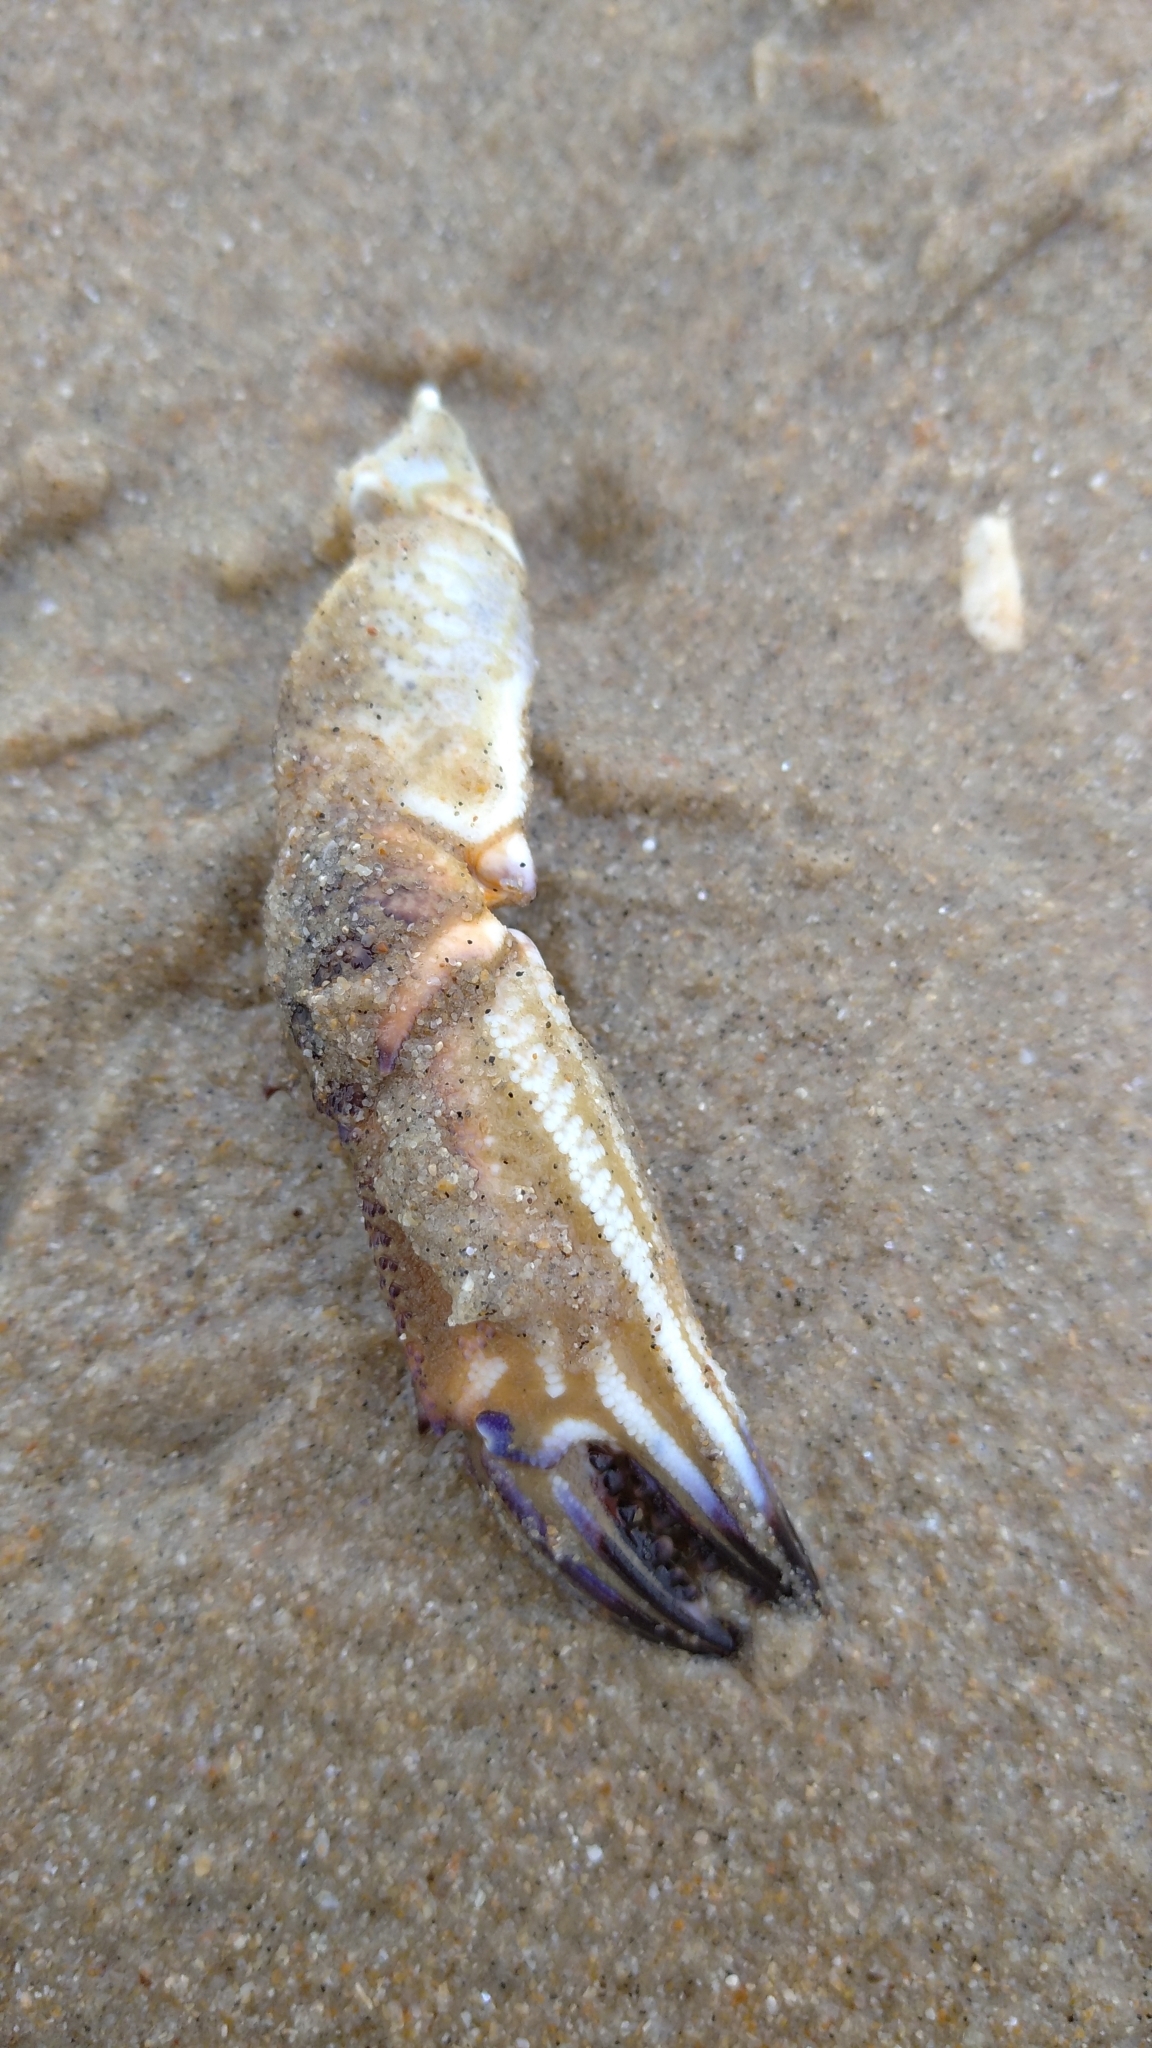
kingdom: Animalia
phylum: Arthropoda
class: Malacostraca
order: Decapoda
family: Polybiidae
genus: Necora
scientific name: Necora puber
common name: Velvet swimming crab
